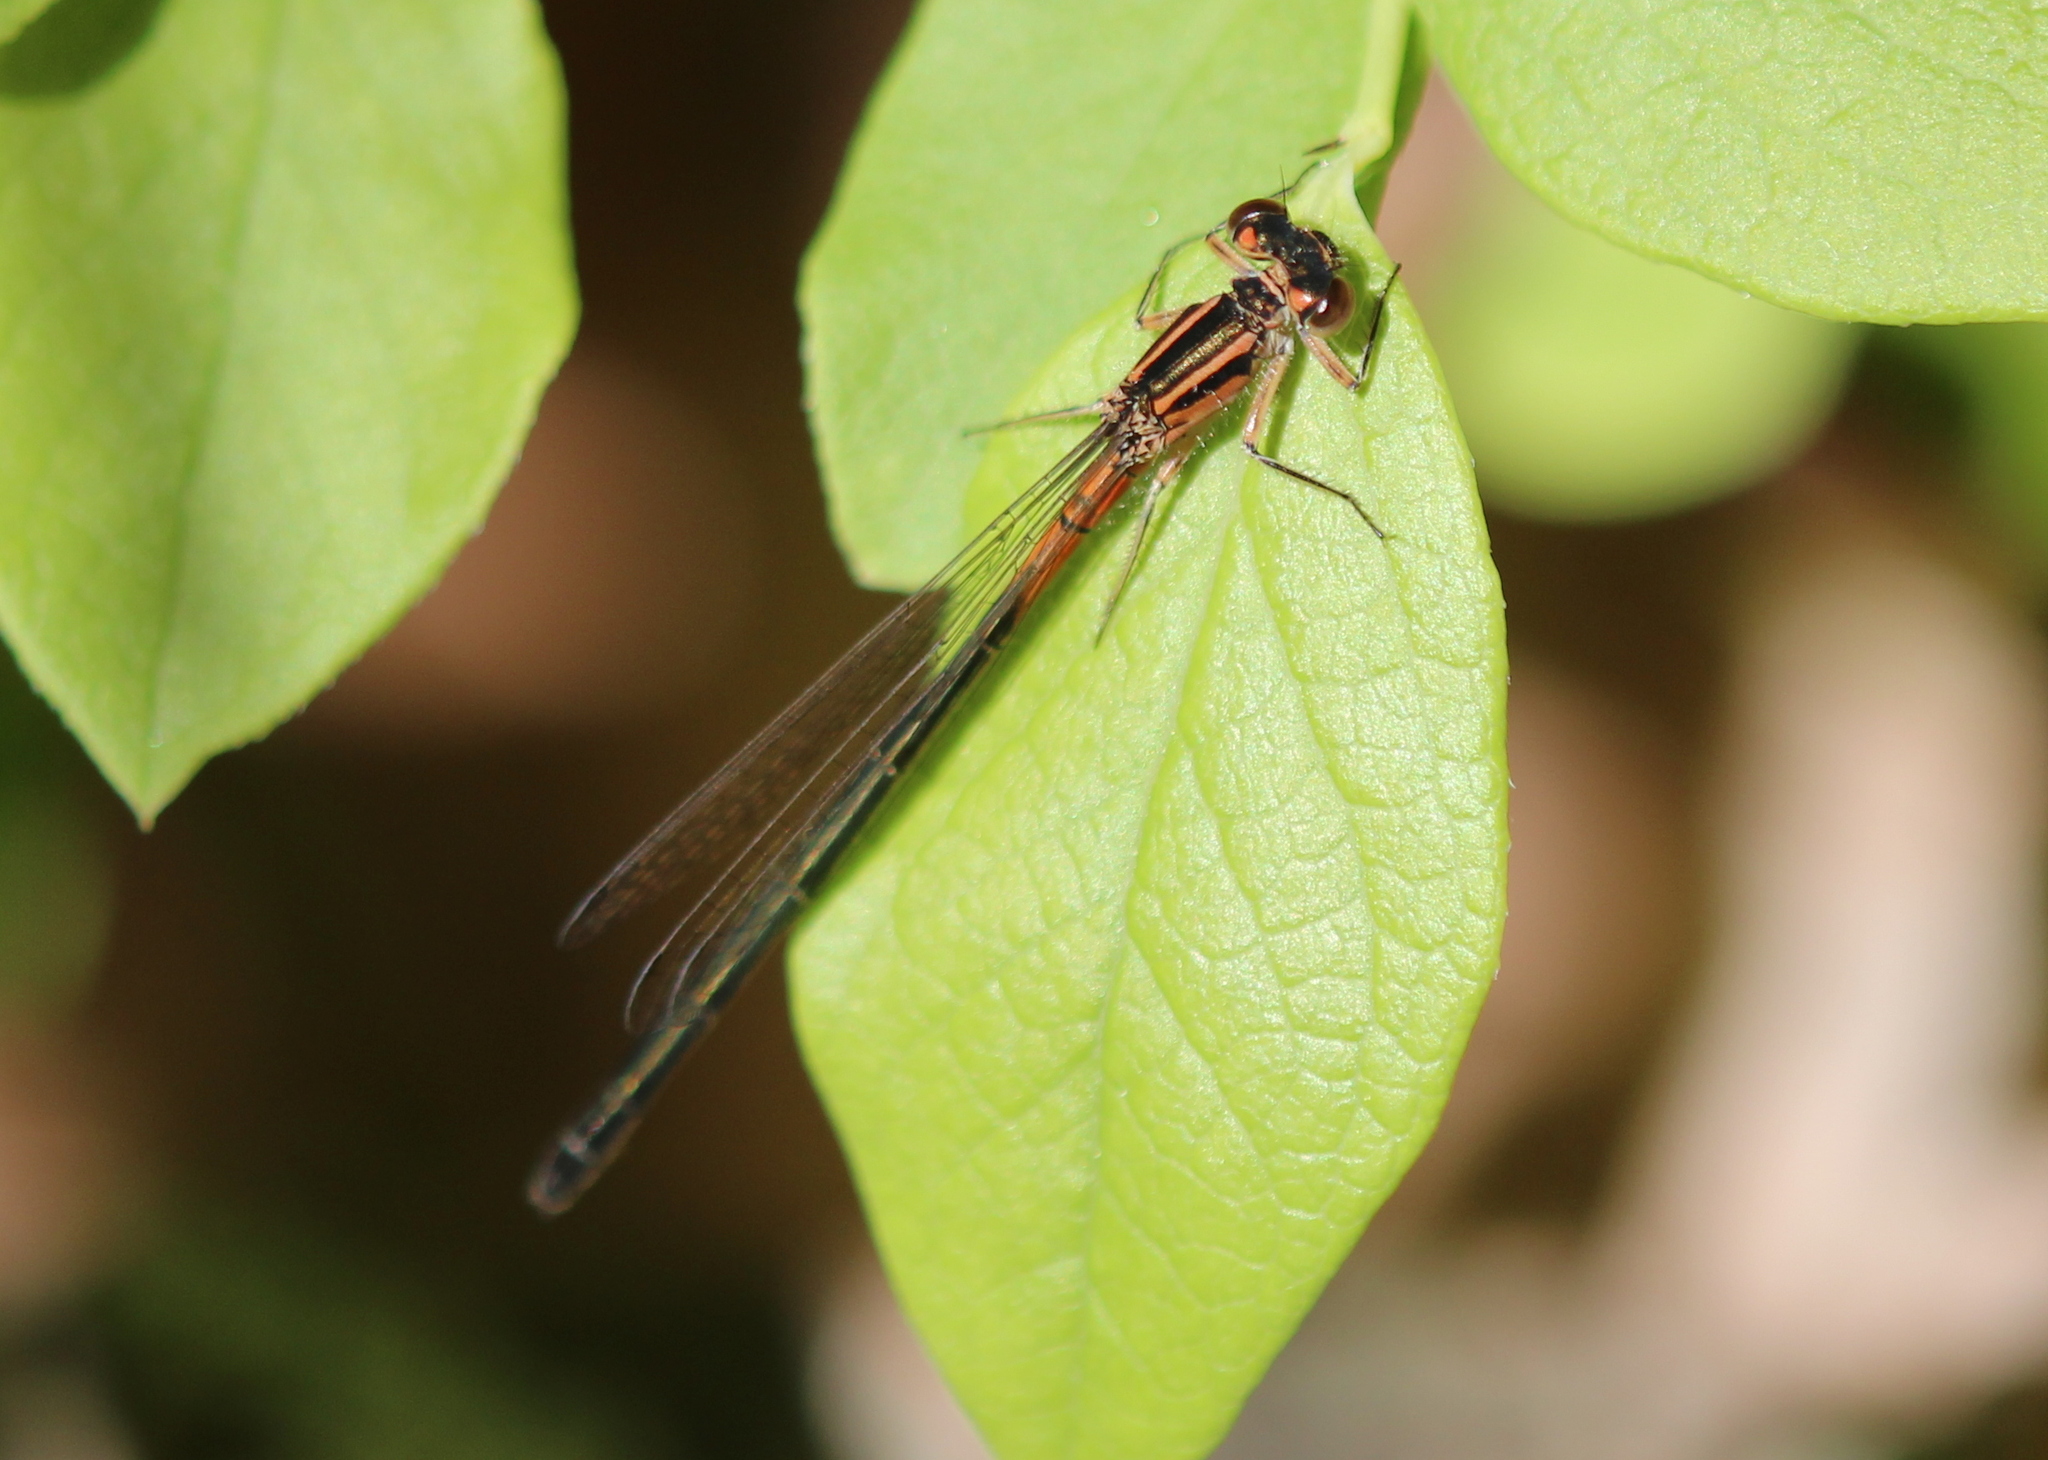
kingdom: Animalia
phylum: Arthropoda
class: Insecta
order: Odonata
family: Coenagrionidae
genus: Ischnura
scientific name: Ischnura verticalis
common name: Eastern forktail
